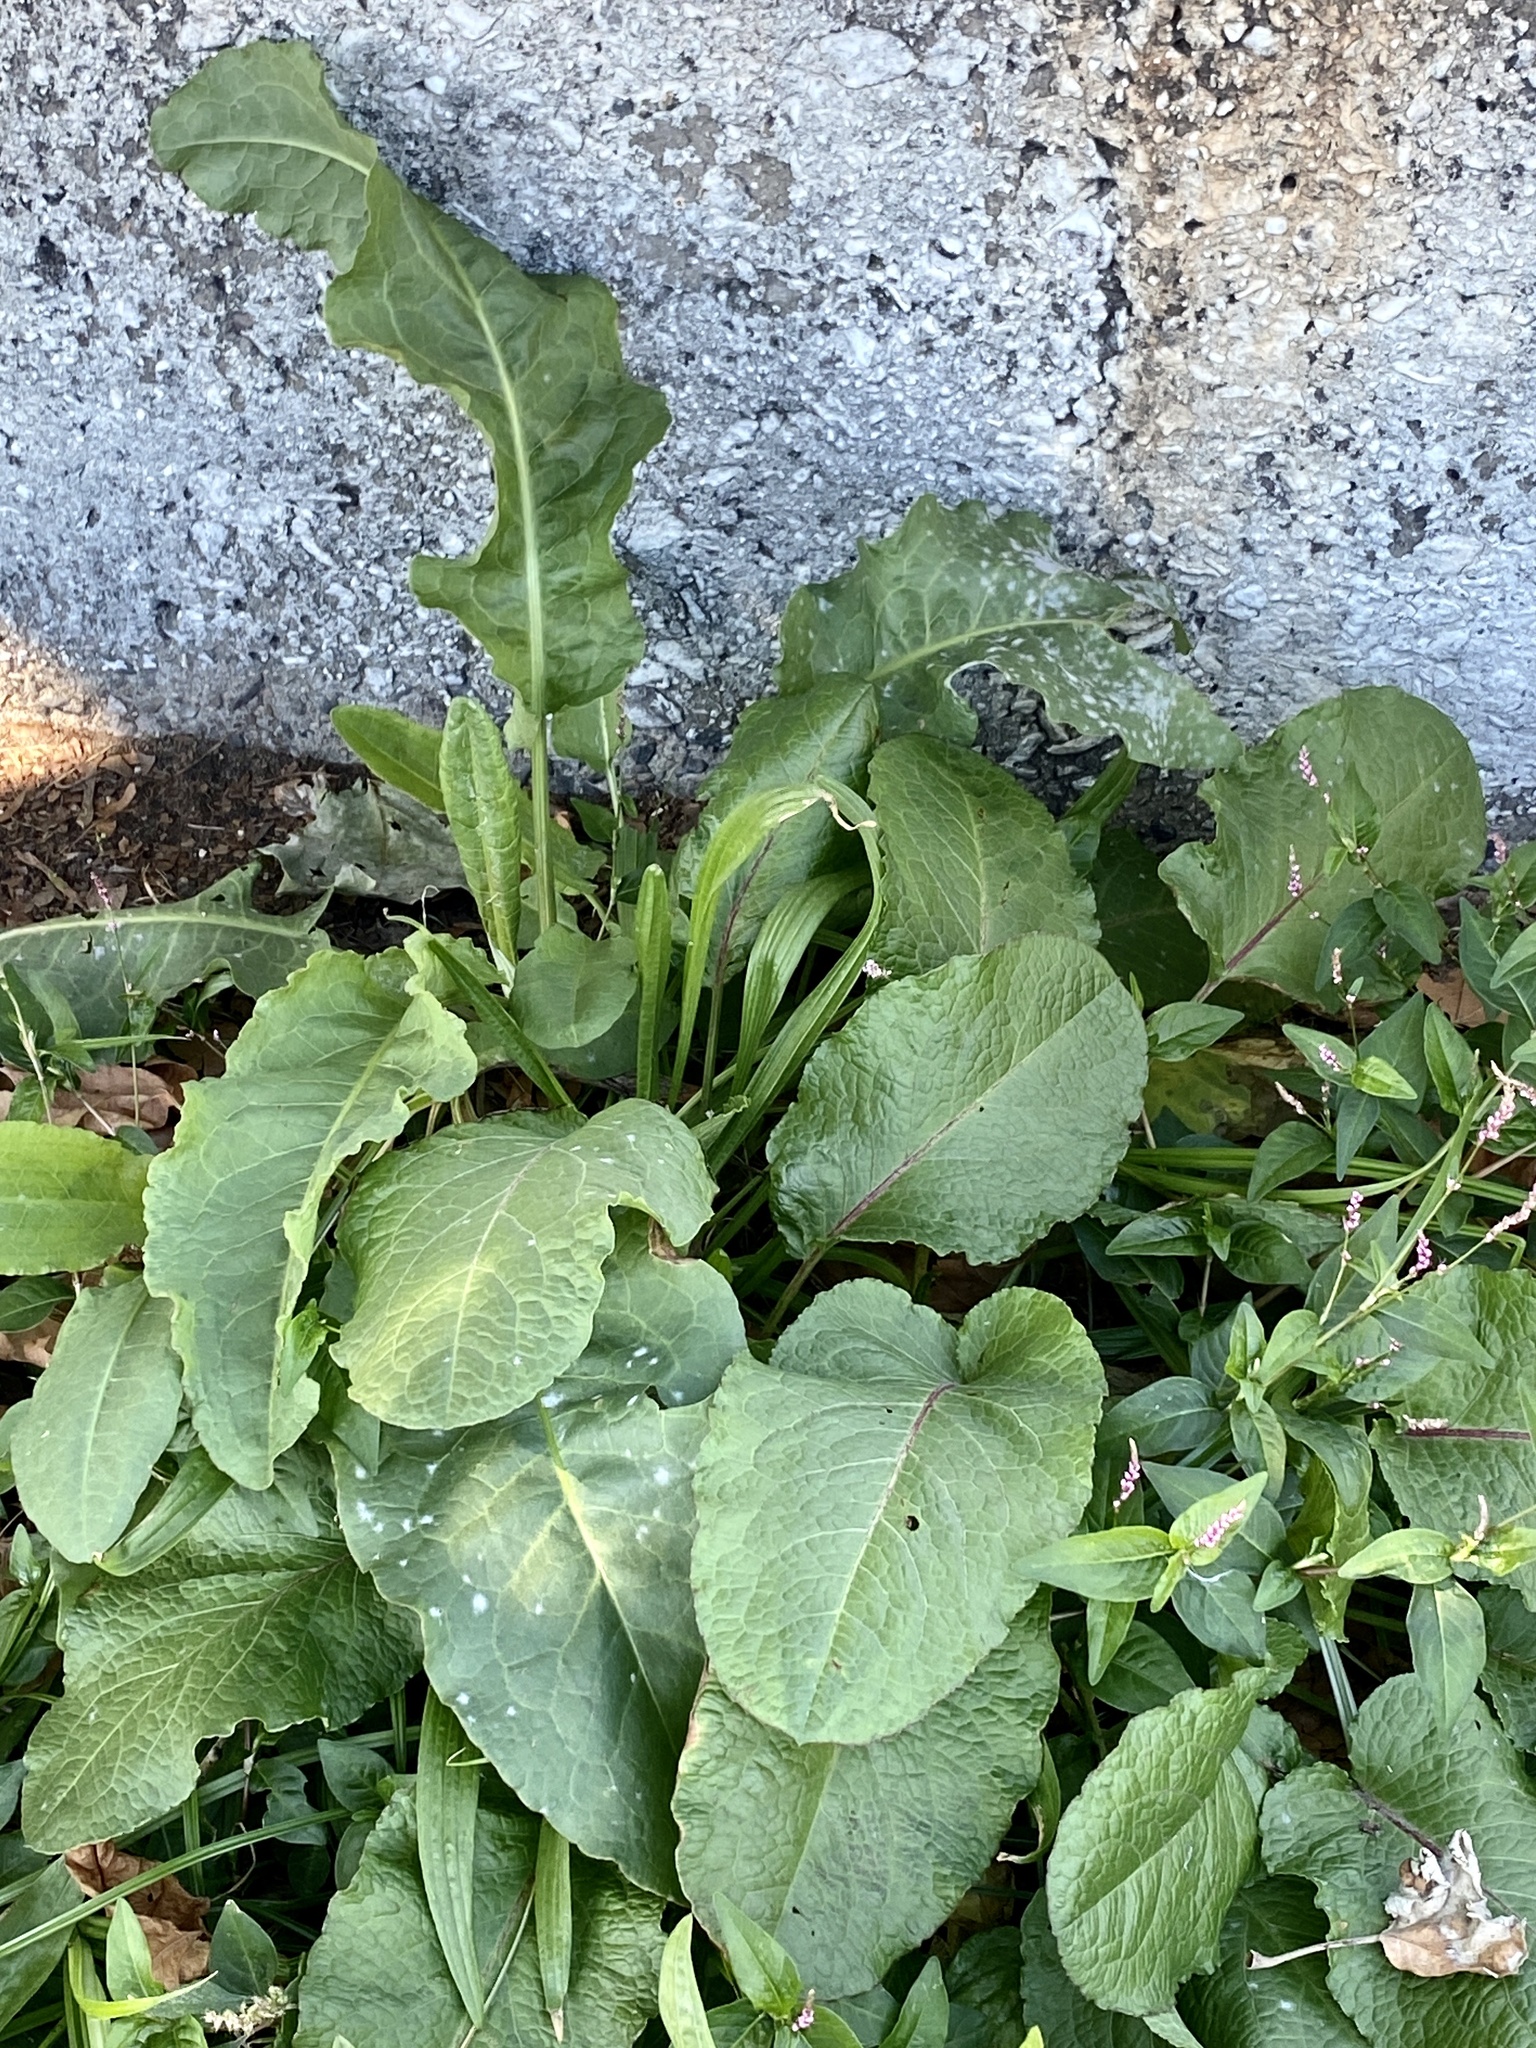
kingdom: Plantae
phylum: Tracheophyta
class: Magnoliopsida
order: Caryophyllales
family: Polygonaceae
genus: Rumex
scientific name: Rumex obtusifolius
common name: Bitter dock
